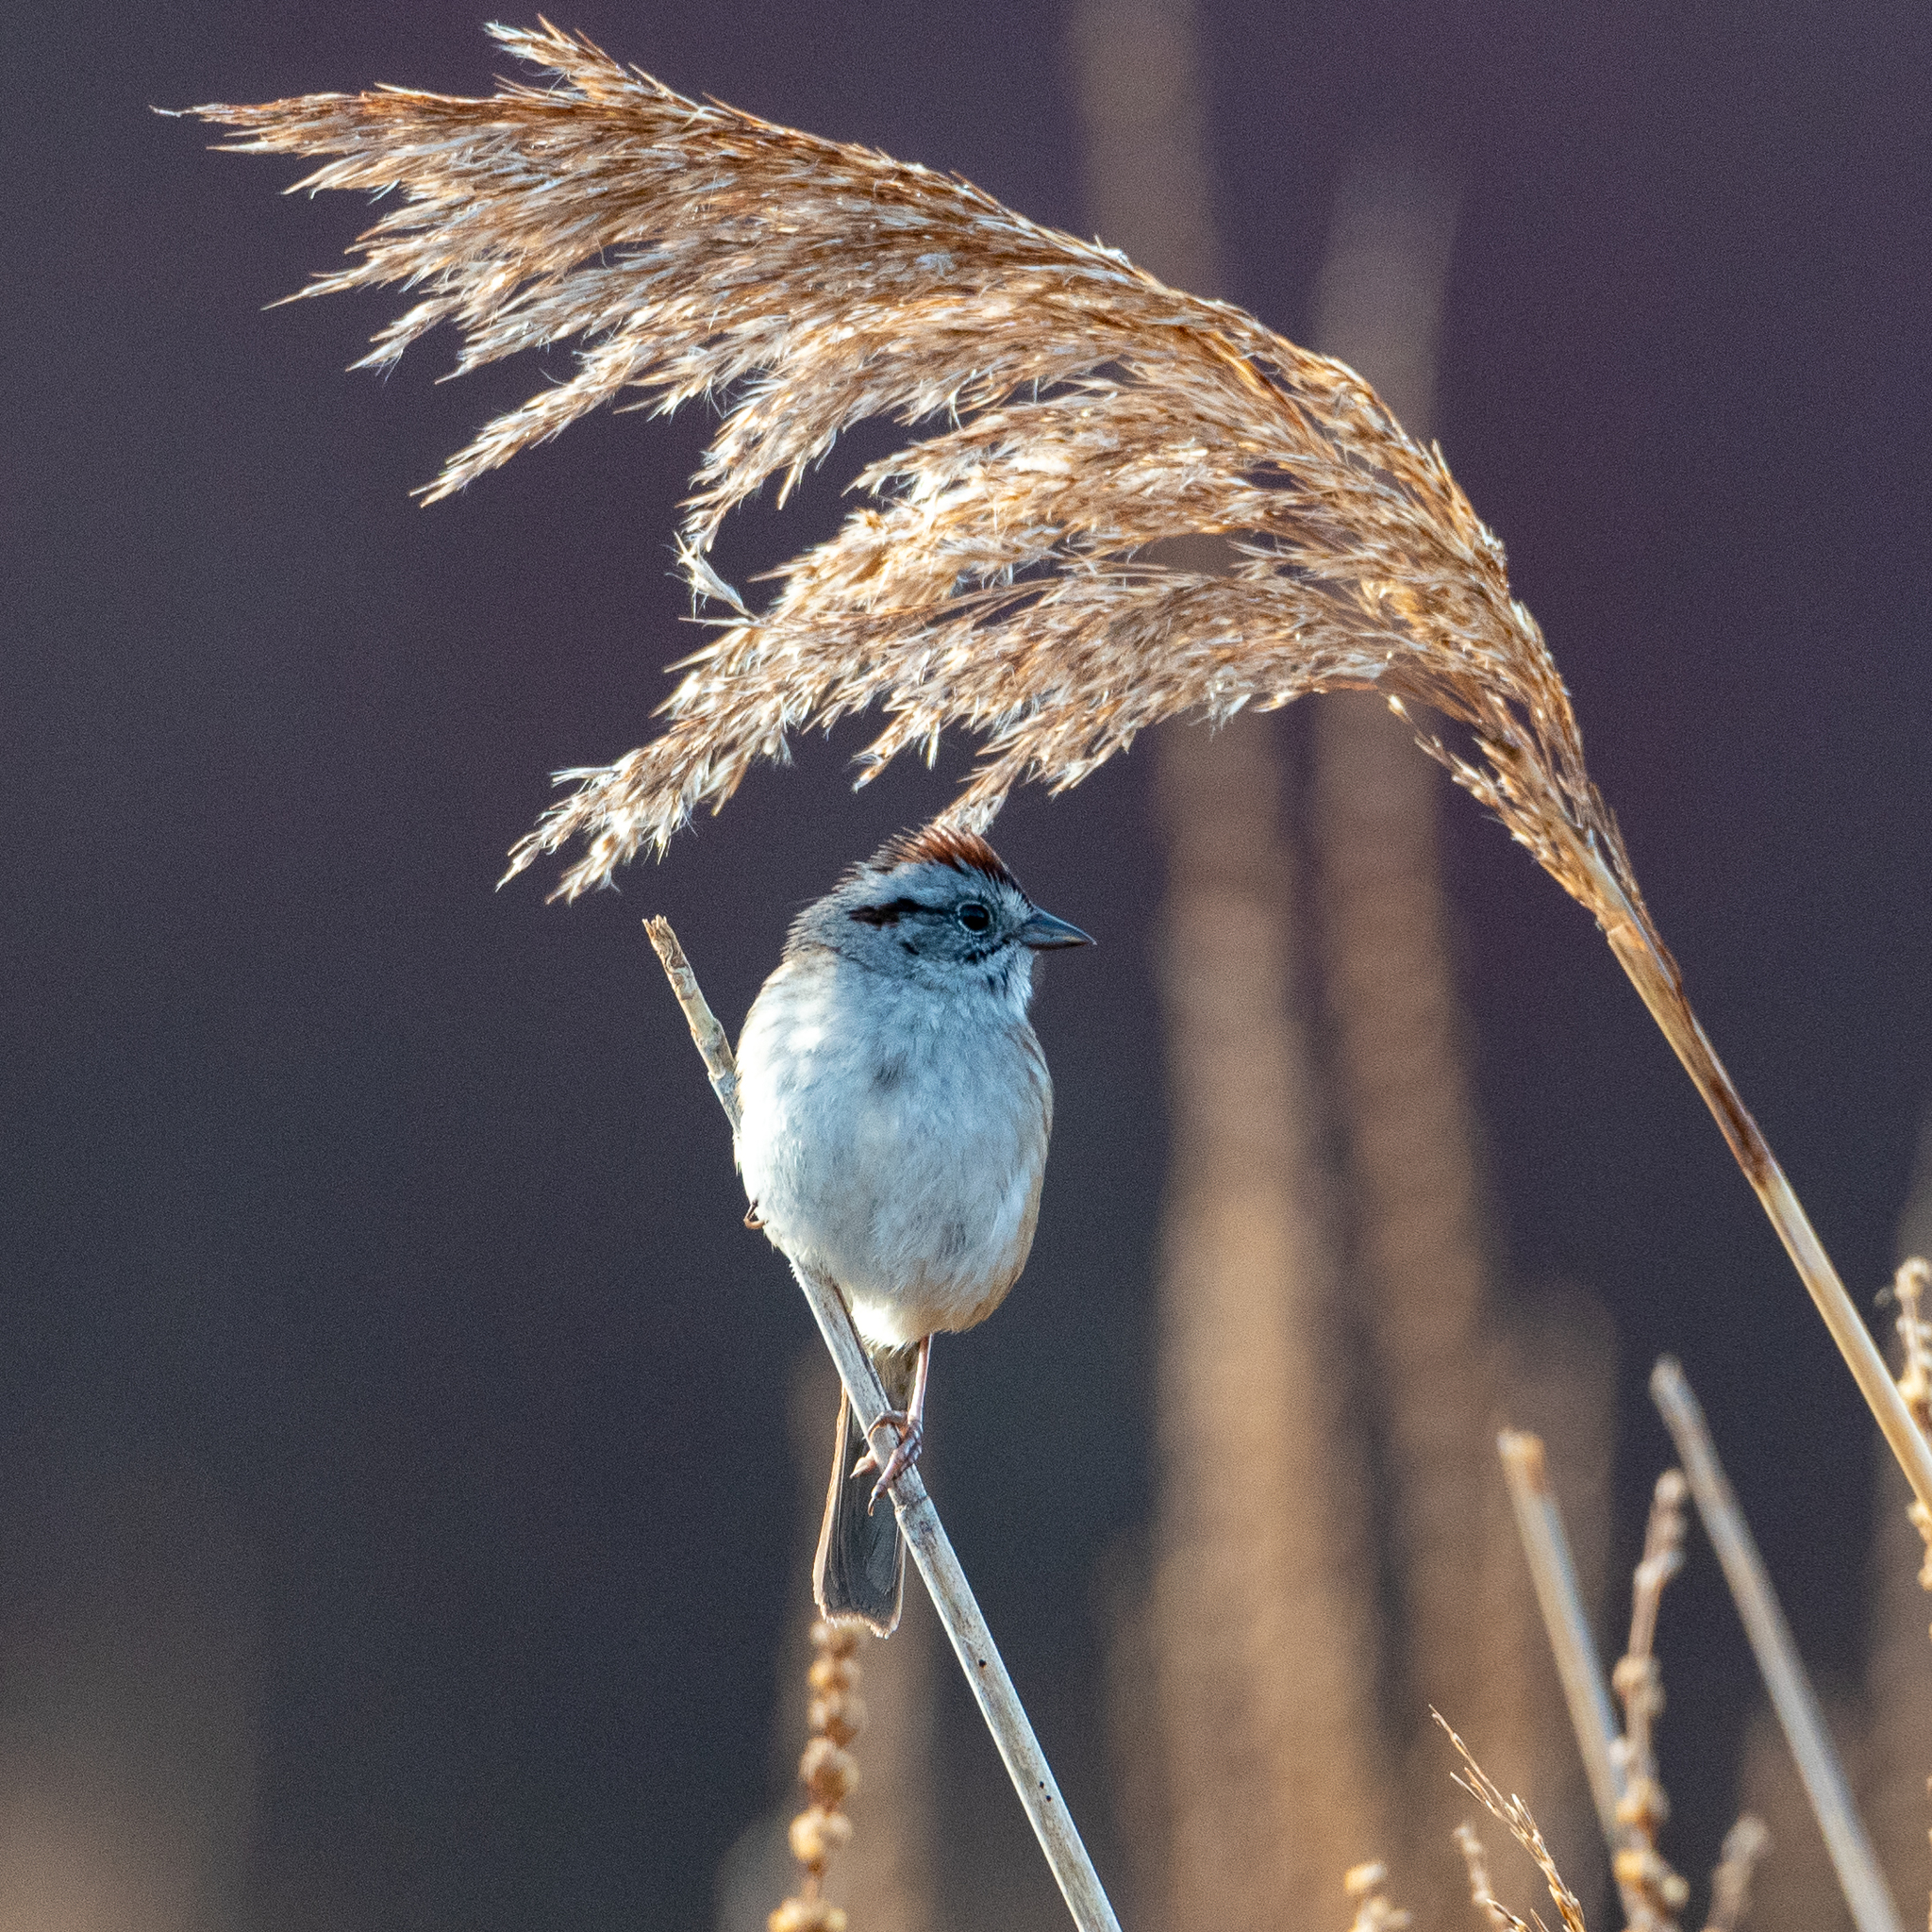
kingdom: Animalia
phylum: Chordata
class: Aves
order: Passeriformes
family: Passerellidae
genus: Melospiza
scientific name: Melospiza georgiana
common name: Swamp sparrow
